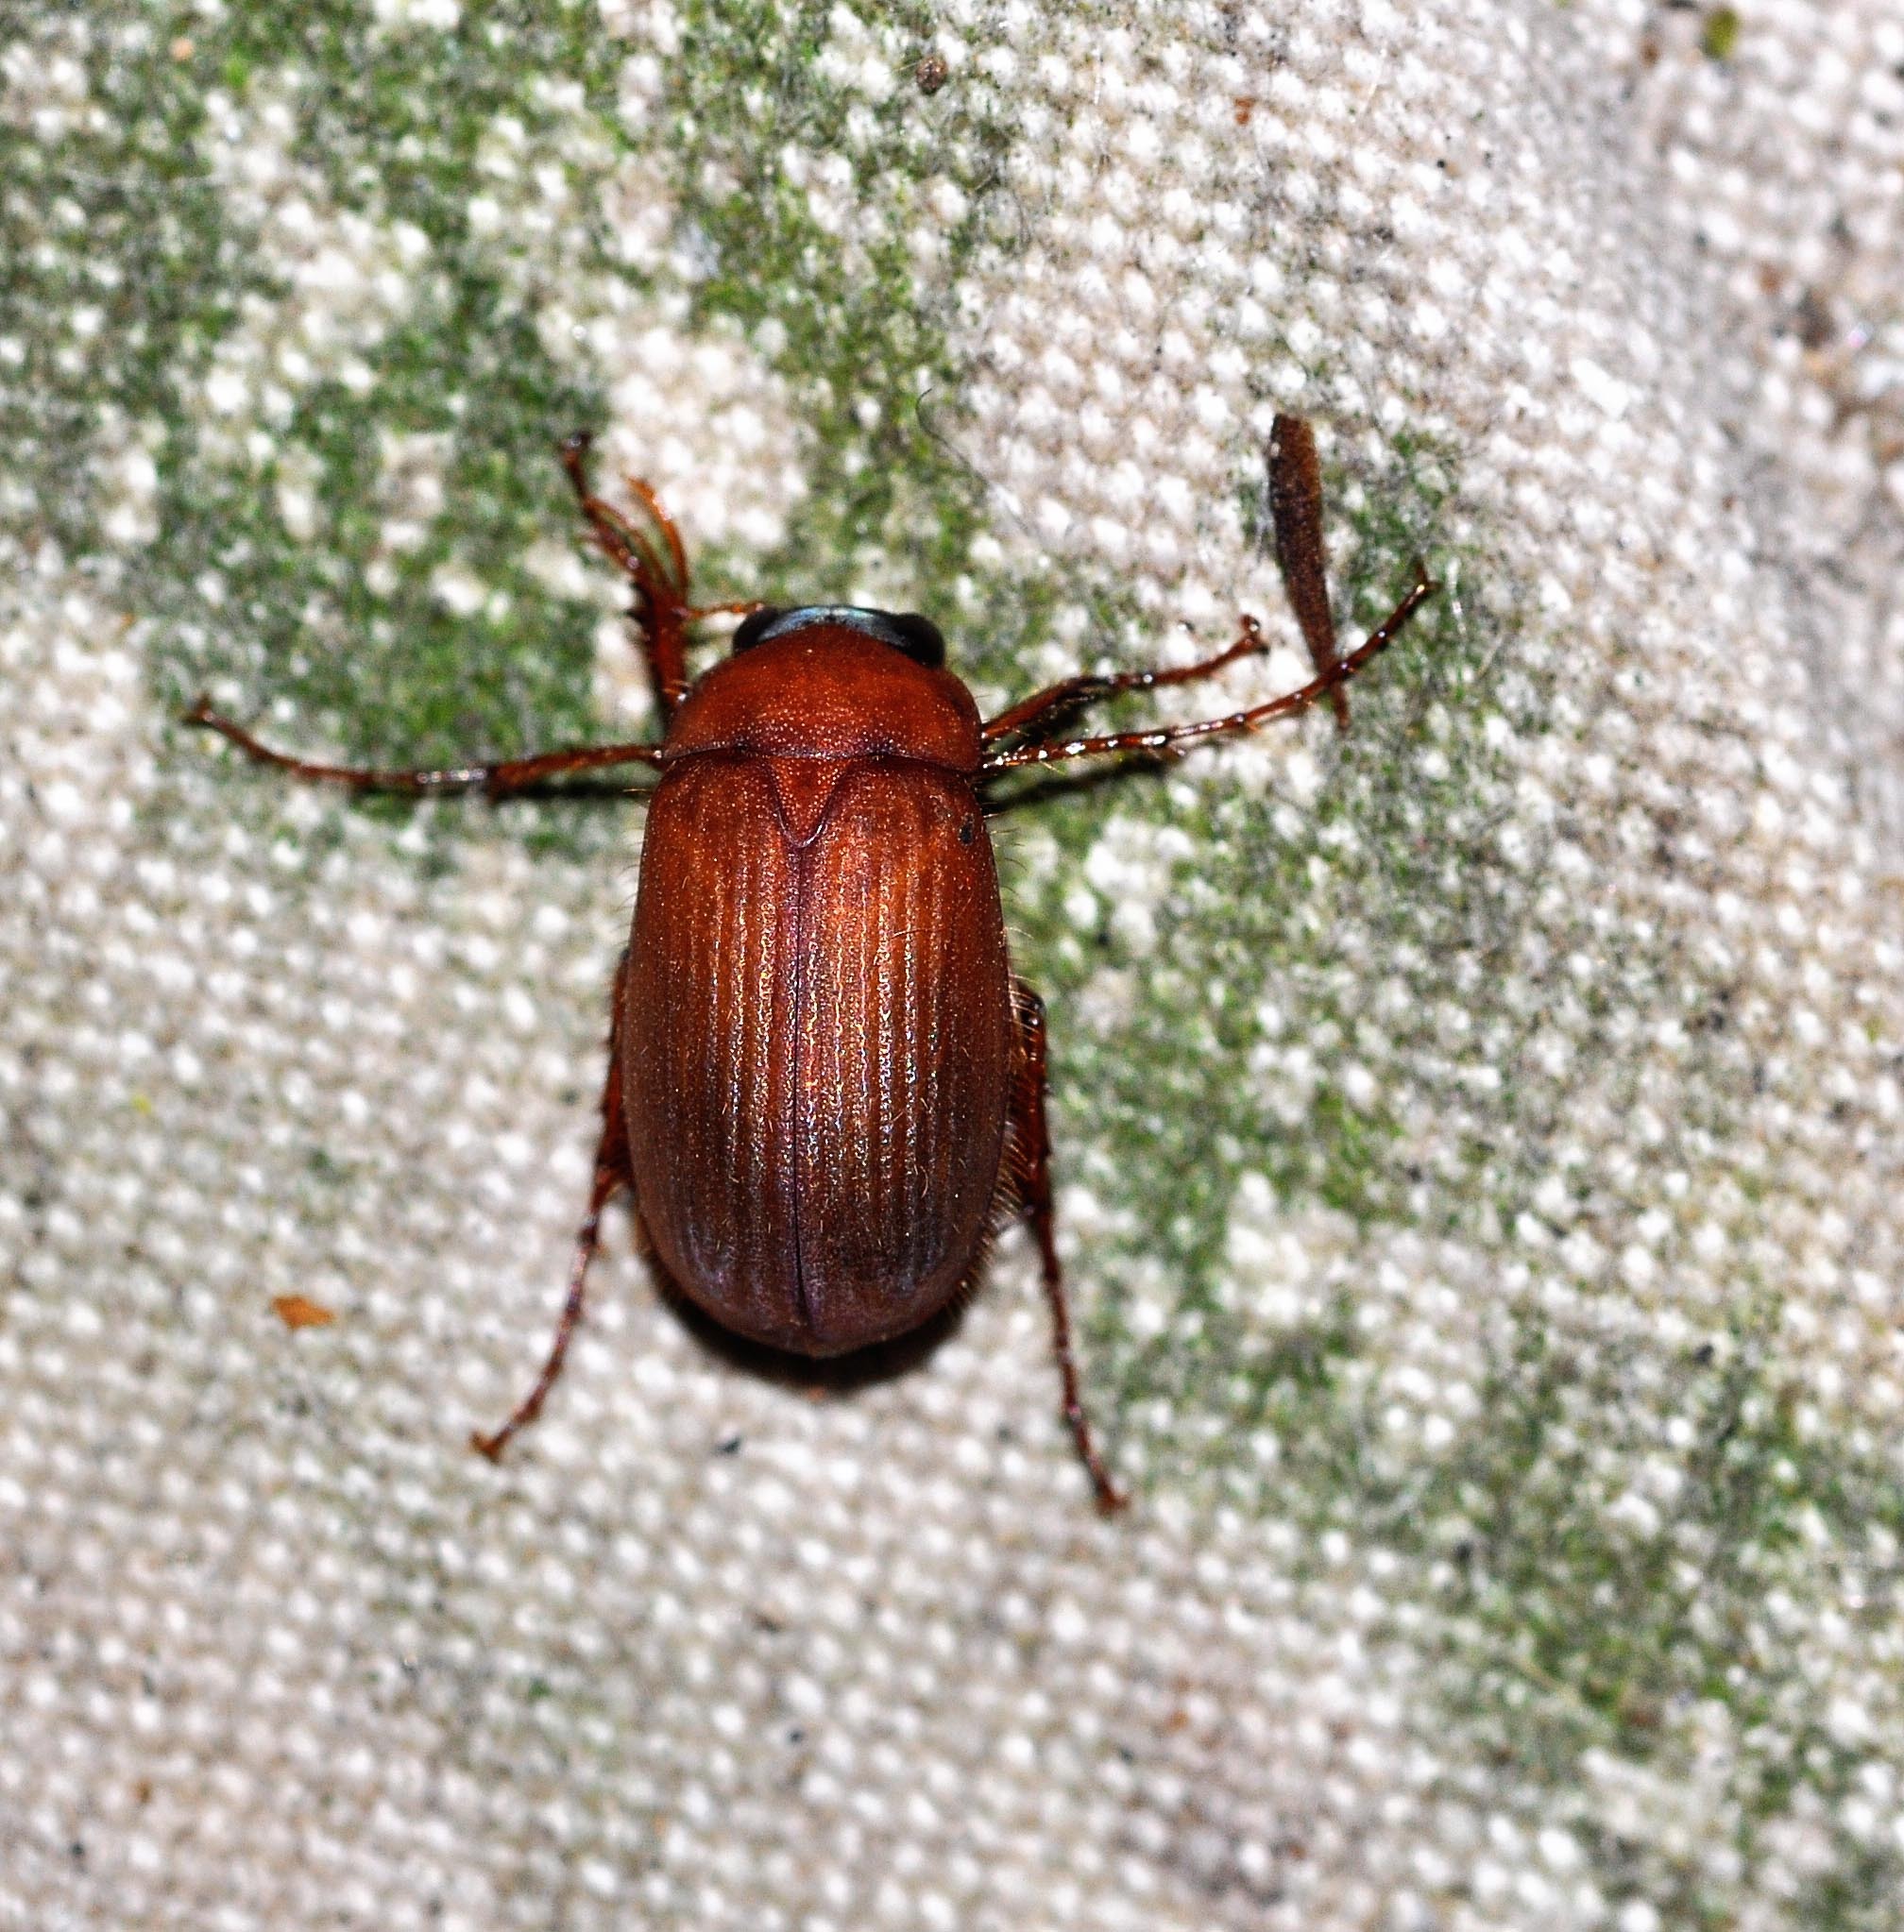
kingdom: Animalia
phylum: Arthropoda
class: Insecta
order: Coleoptera
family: Scarabaeidae
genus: Serica
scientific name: Serica brunnea
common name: Brown chafer
